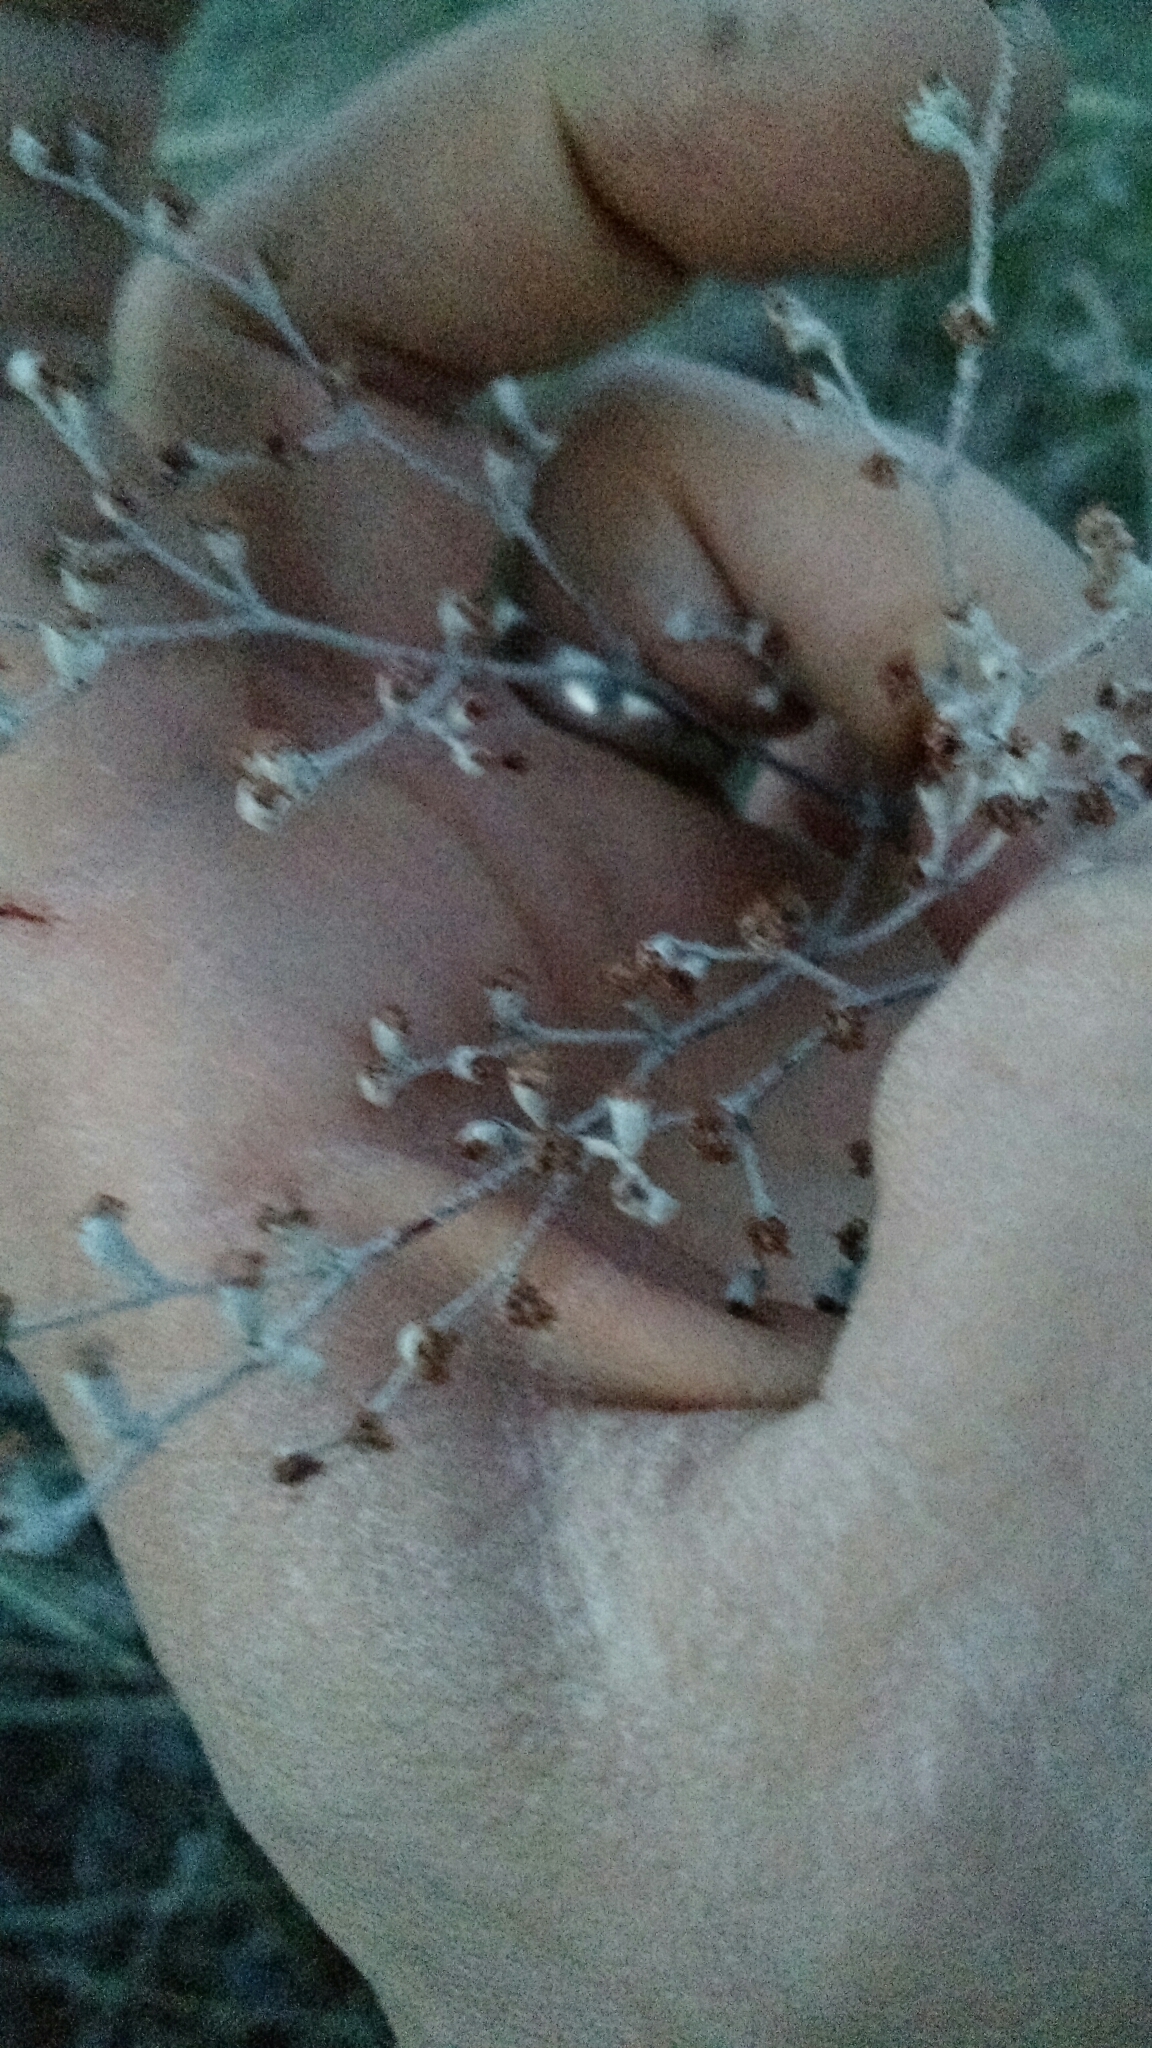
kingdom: Plantae
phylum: Tracheophyta
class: Magnoliopsida
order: Caryophyllales
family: Polygonaceae
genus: Eriogonum
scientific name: Eriogonum annuum
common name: Annual wild buckwheat
